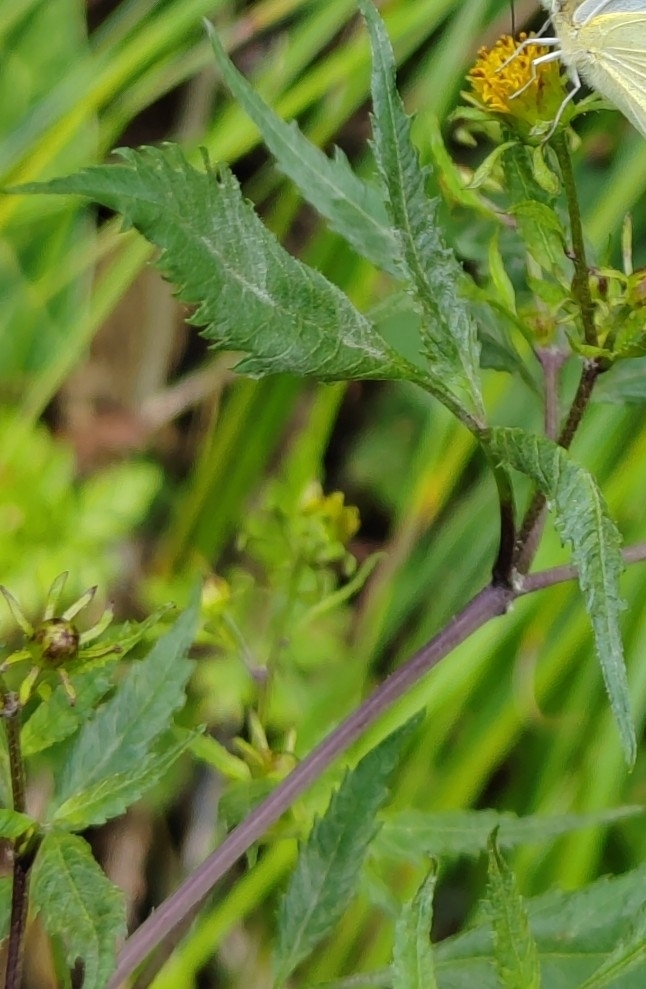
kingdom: Plantae
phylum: Tracheophyta
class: Magnoliopsida
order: Asterales
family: Asteraceae
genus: Bidens
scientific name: Bidens frondosa
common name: Beggarticks
